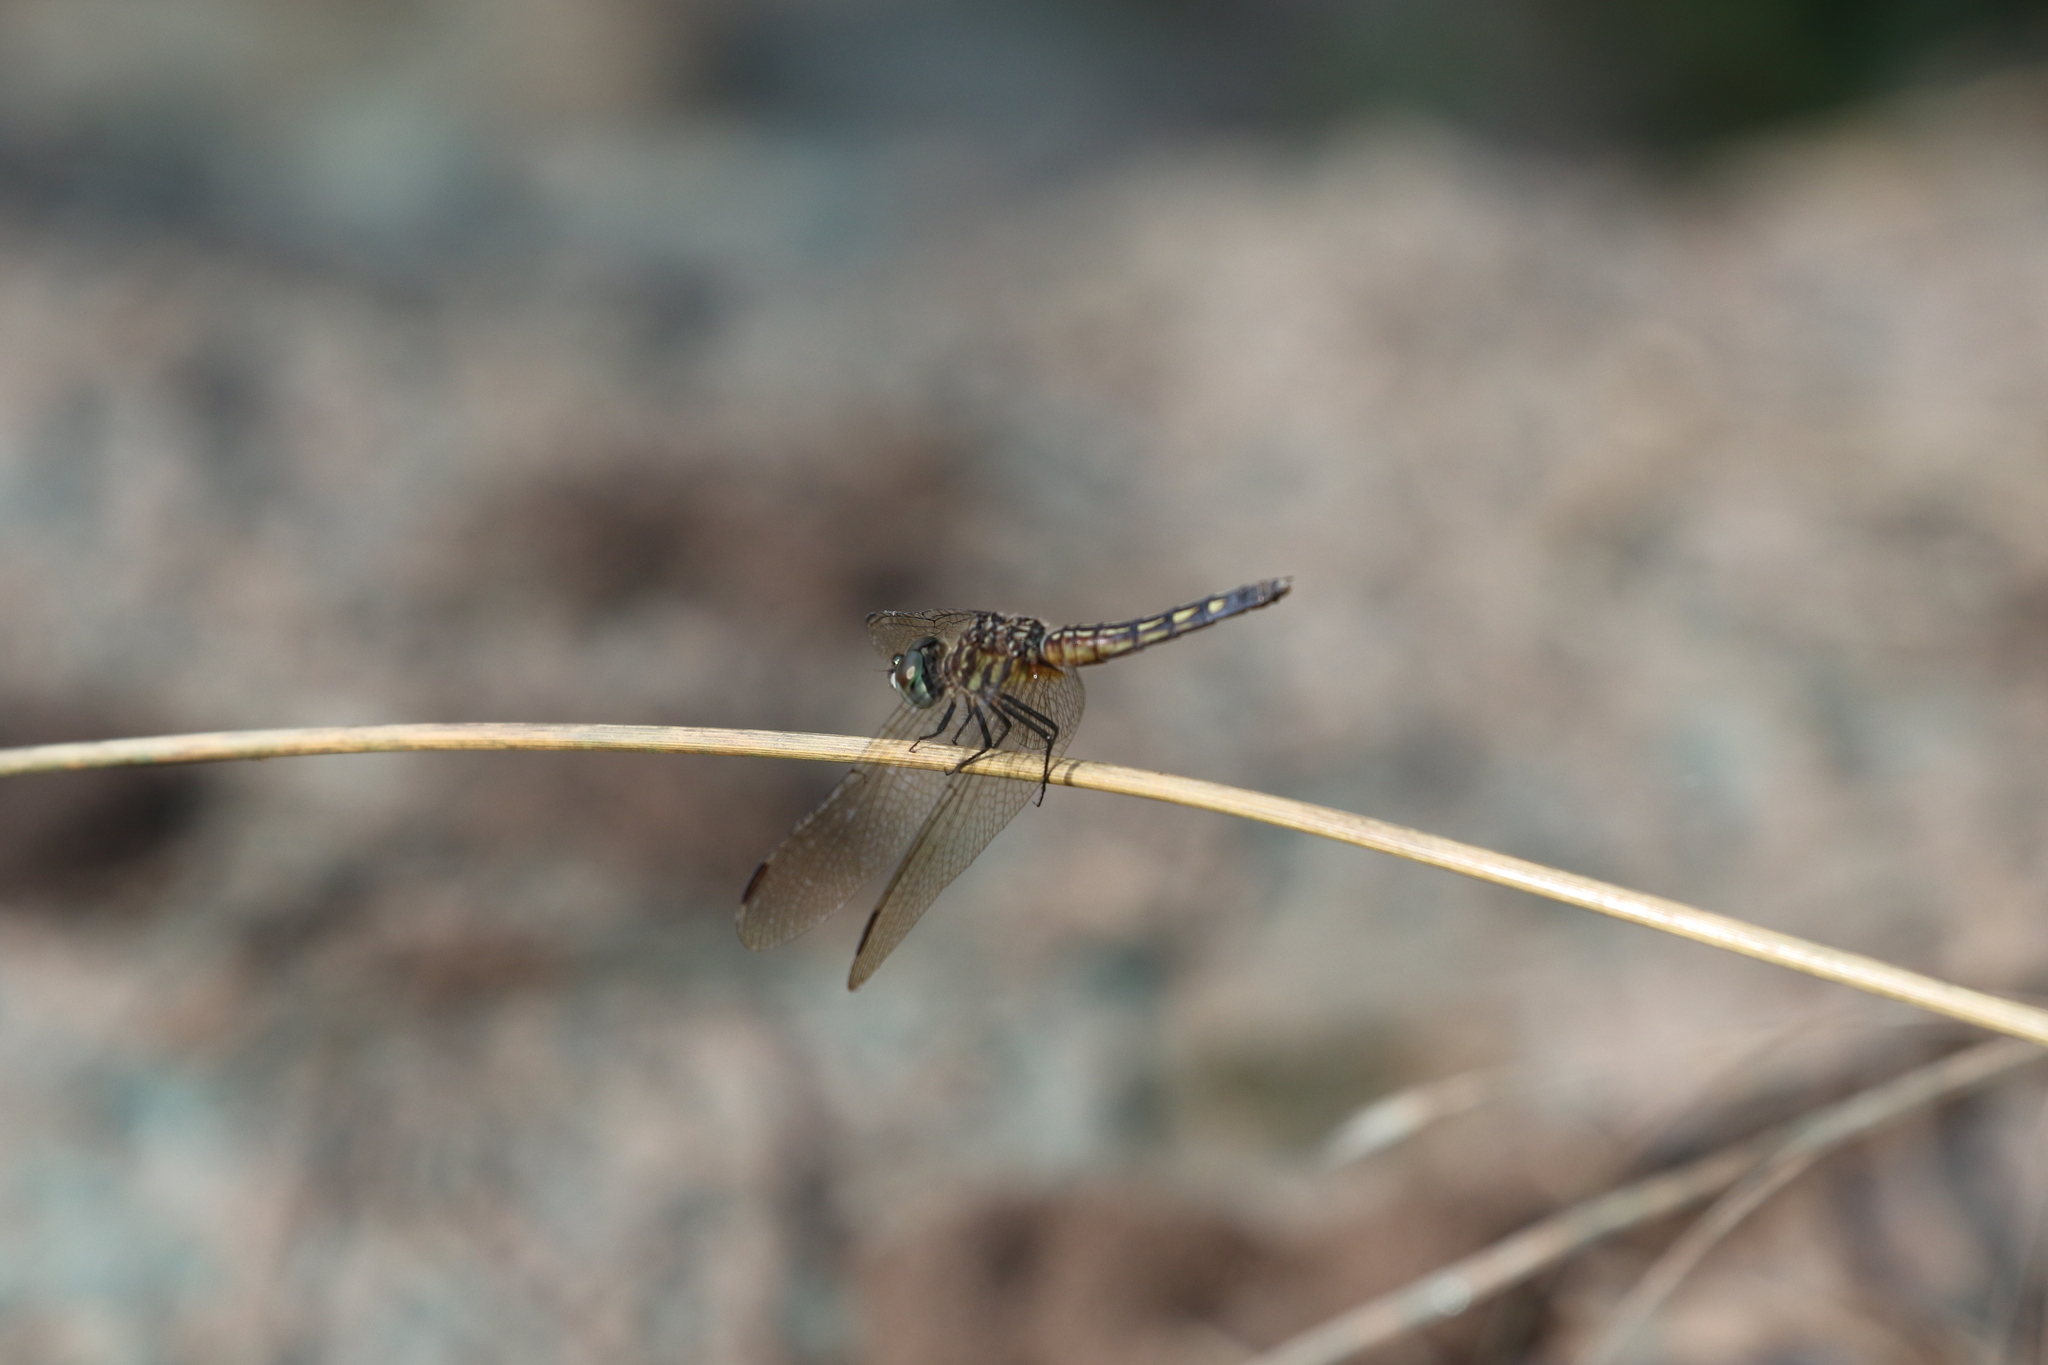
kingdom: Animalia
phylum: Arthropoda
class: Insecta
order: Odonata
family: Libellulidae
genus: Pachydiplax
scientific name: Pachydiplax longipennis
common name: Blue dasher
